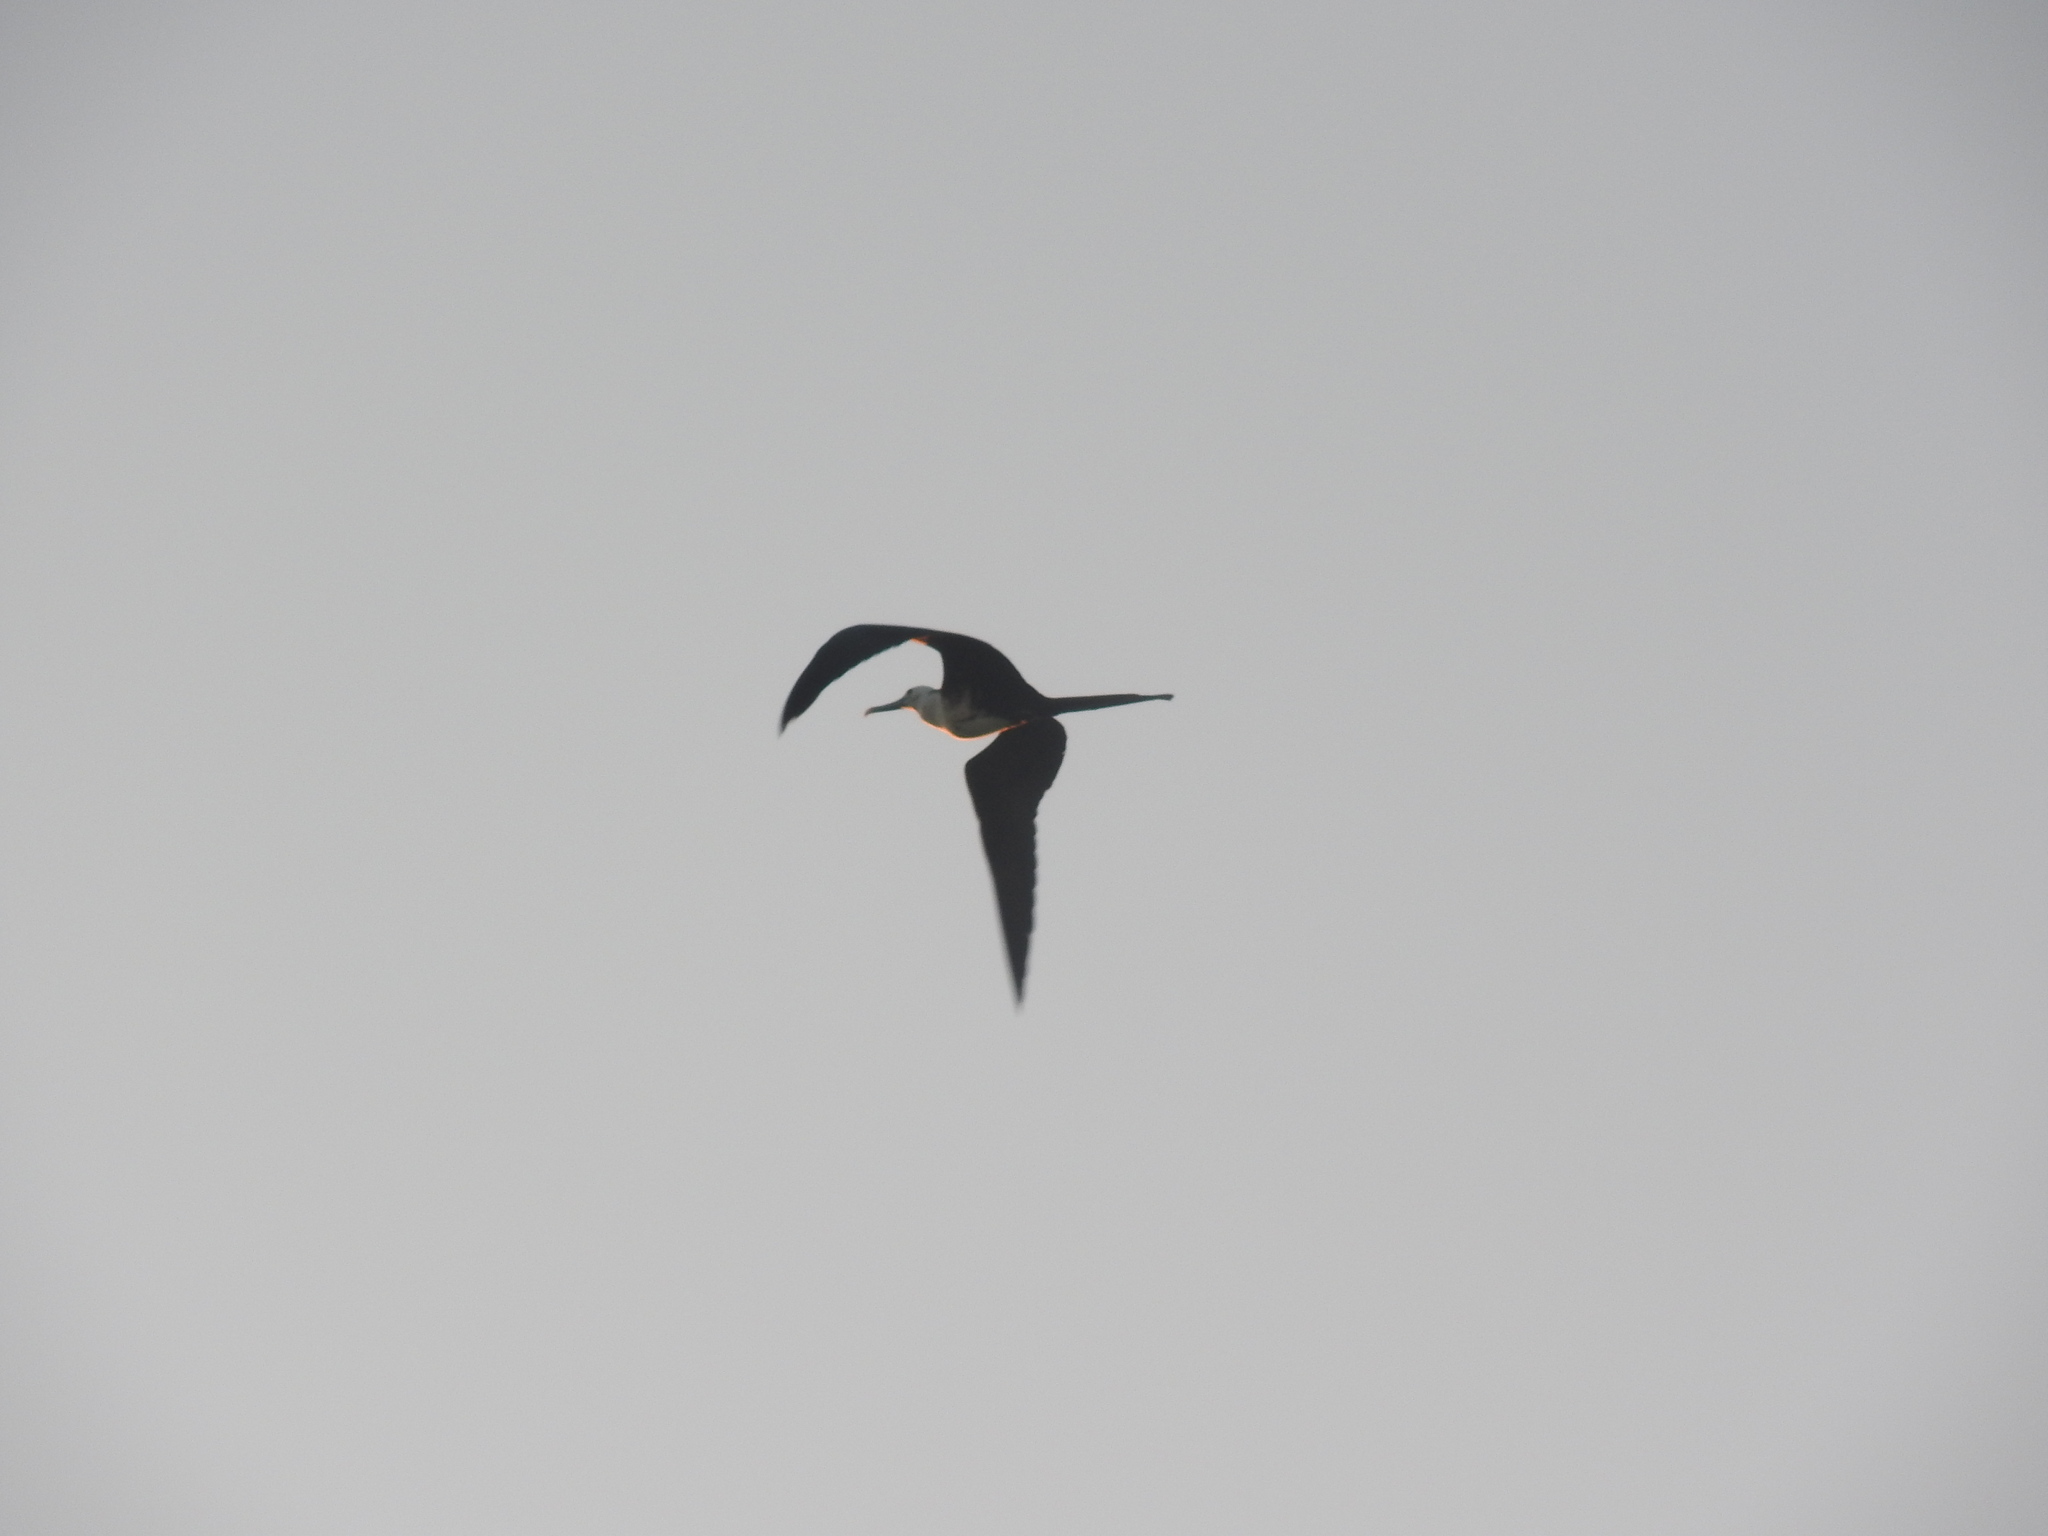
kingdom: Animalia
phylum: Chordata
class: Aves
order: Suliformes
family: Fregatidae
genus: Fregata
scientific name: Fregata magnificens
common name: Magnificent frigatebird
